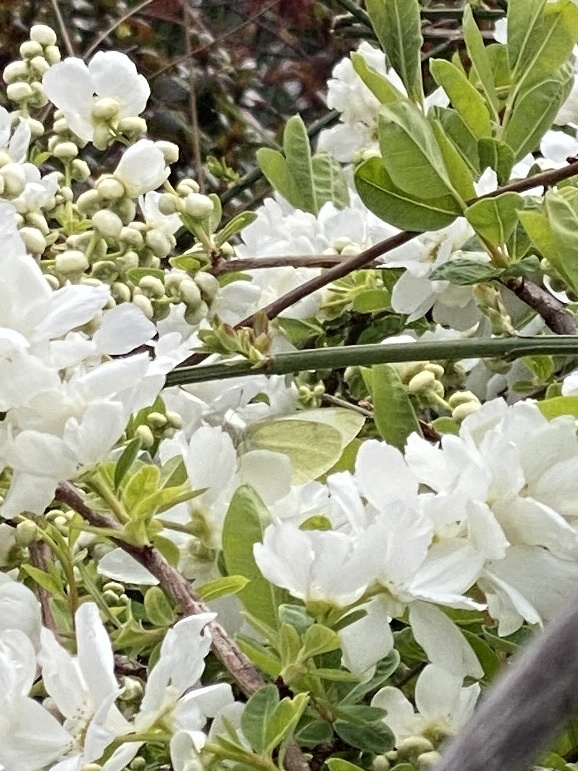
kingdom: Animalia
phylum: Arthropoda
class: Insecta
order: Lepidoptera
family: Pieridae
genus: Pieris
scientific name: Pieris rapae
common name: Small white
